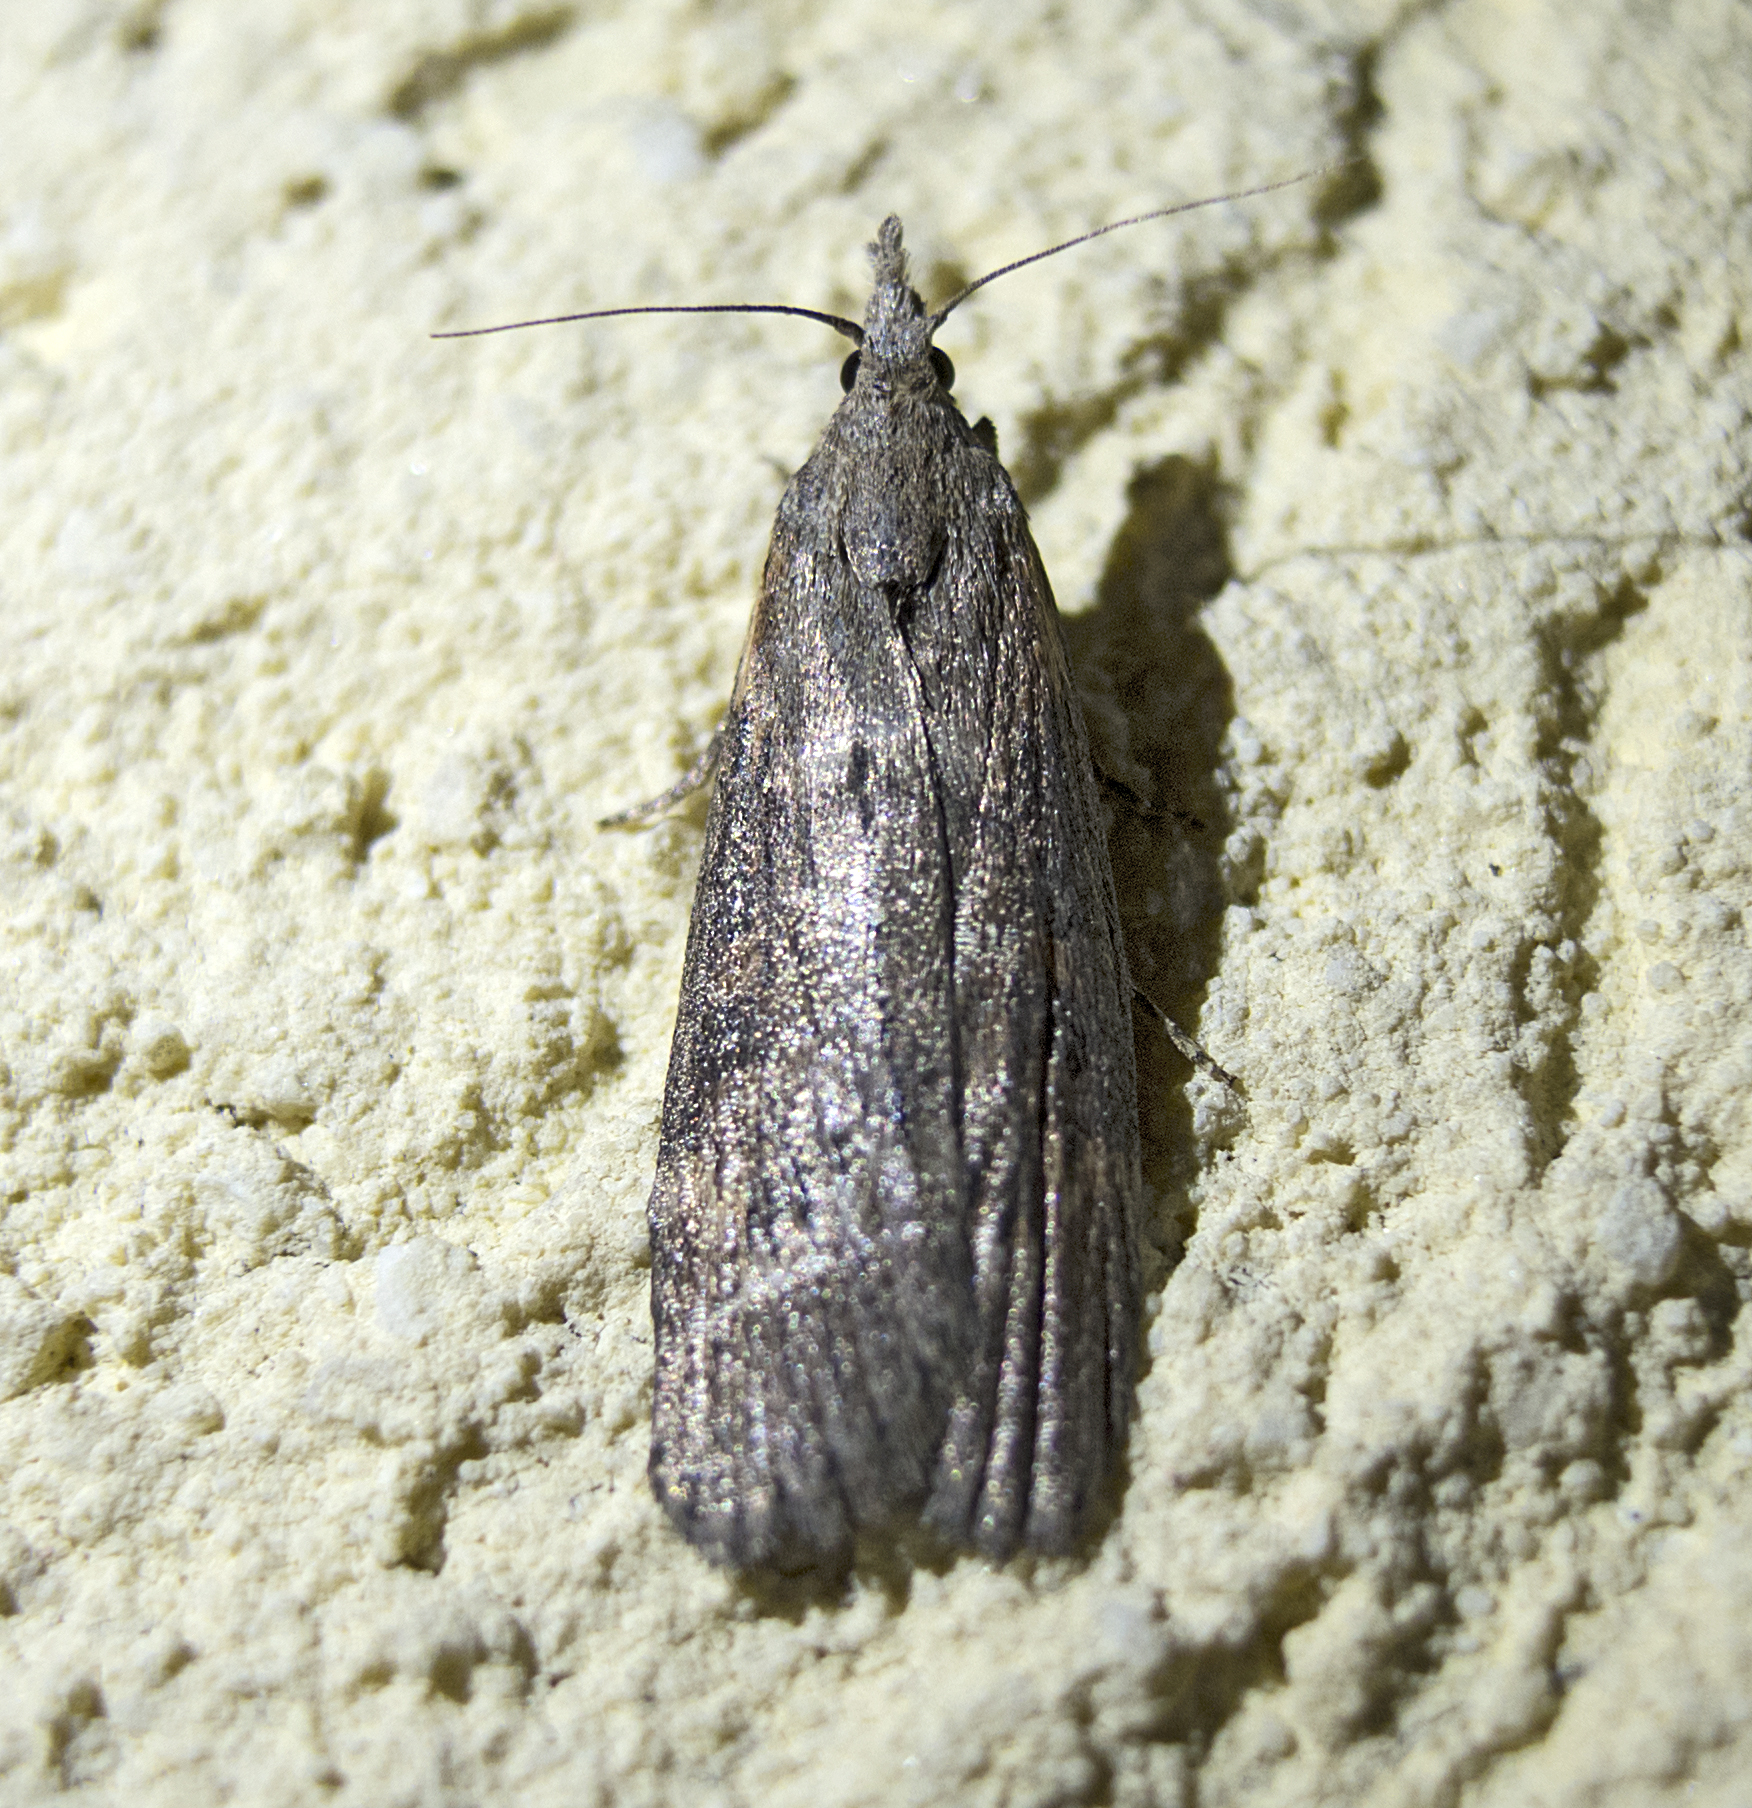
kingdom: Animalia
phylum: Arthropoda
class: Insecta
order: Lepidoptera
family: Pyralidae
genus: Lamoria
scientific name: Lamoria anella
